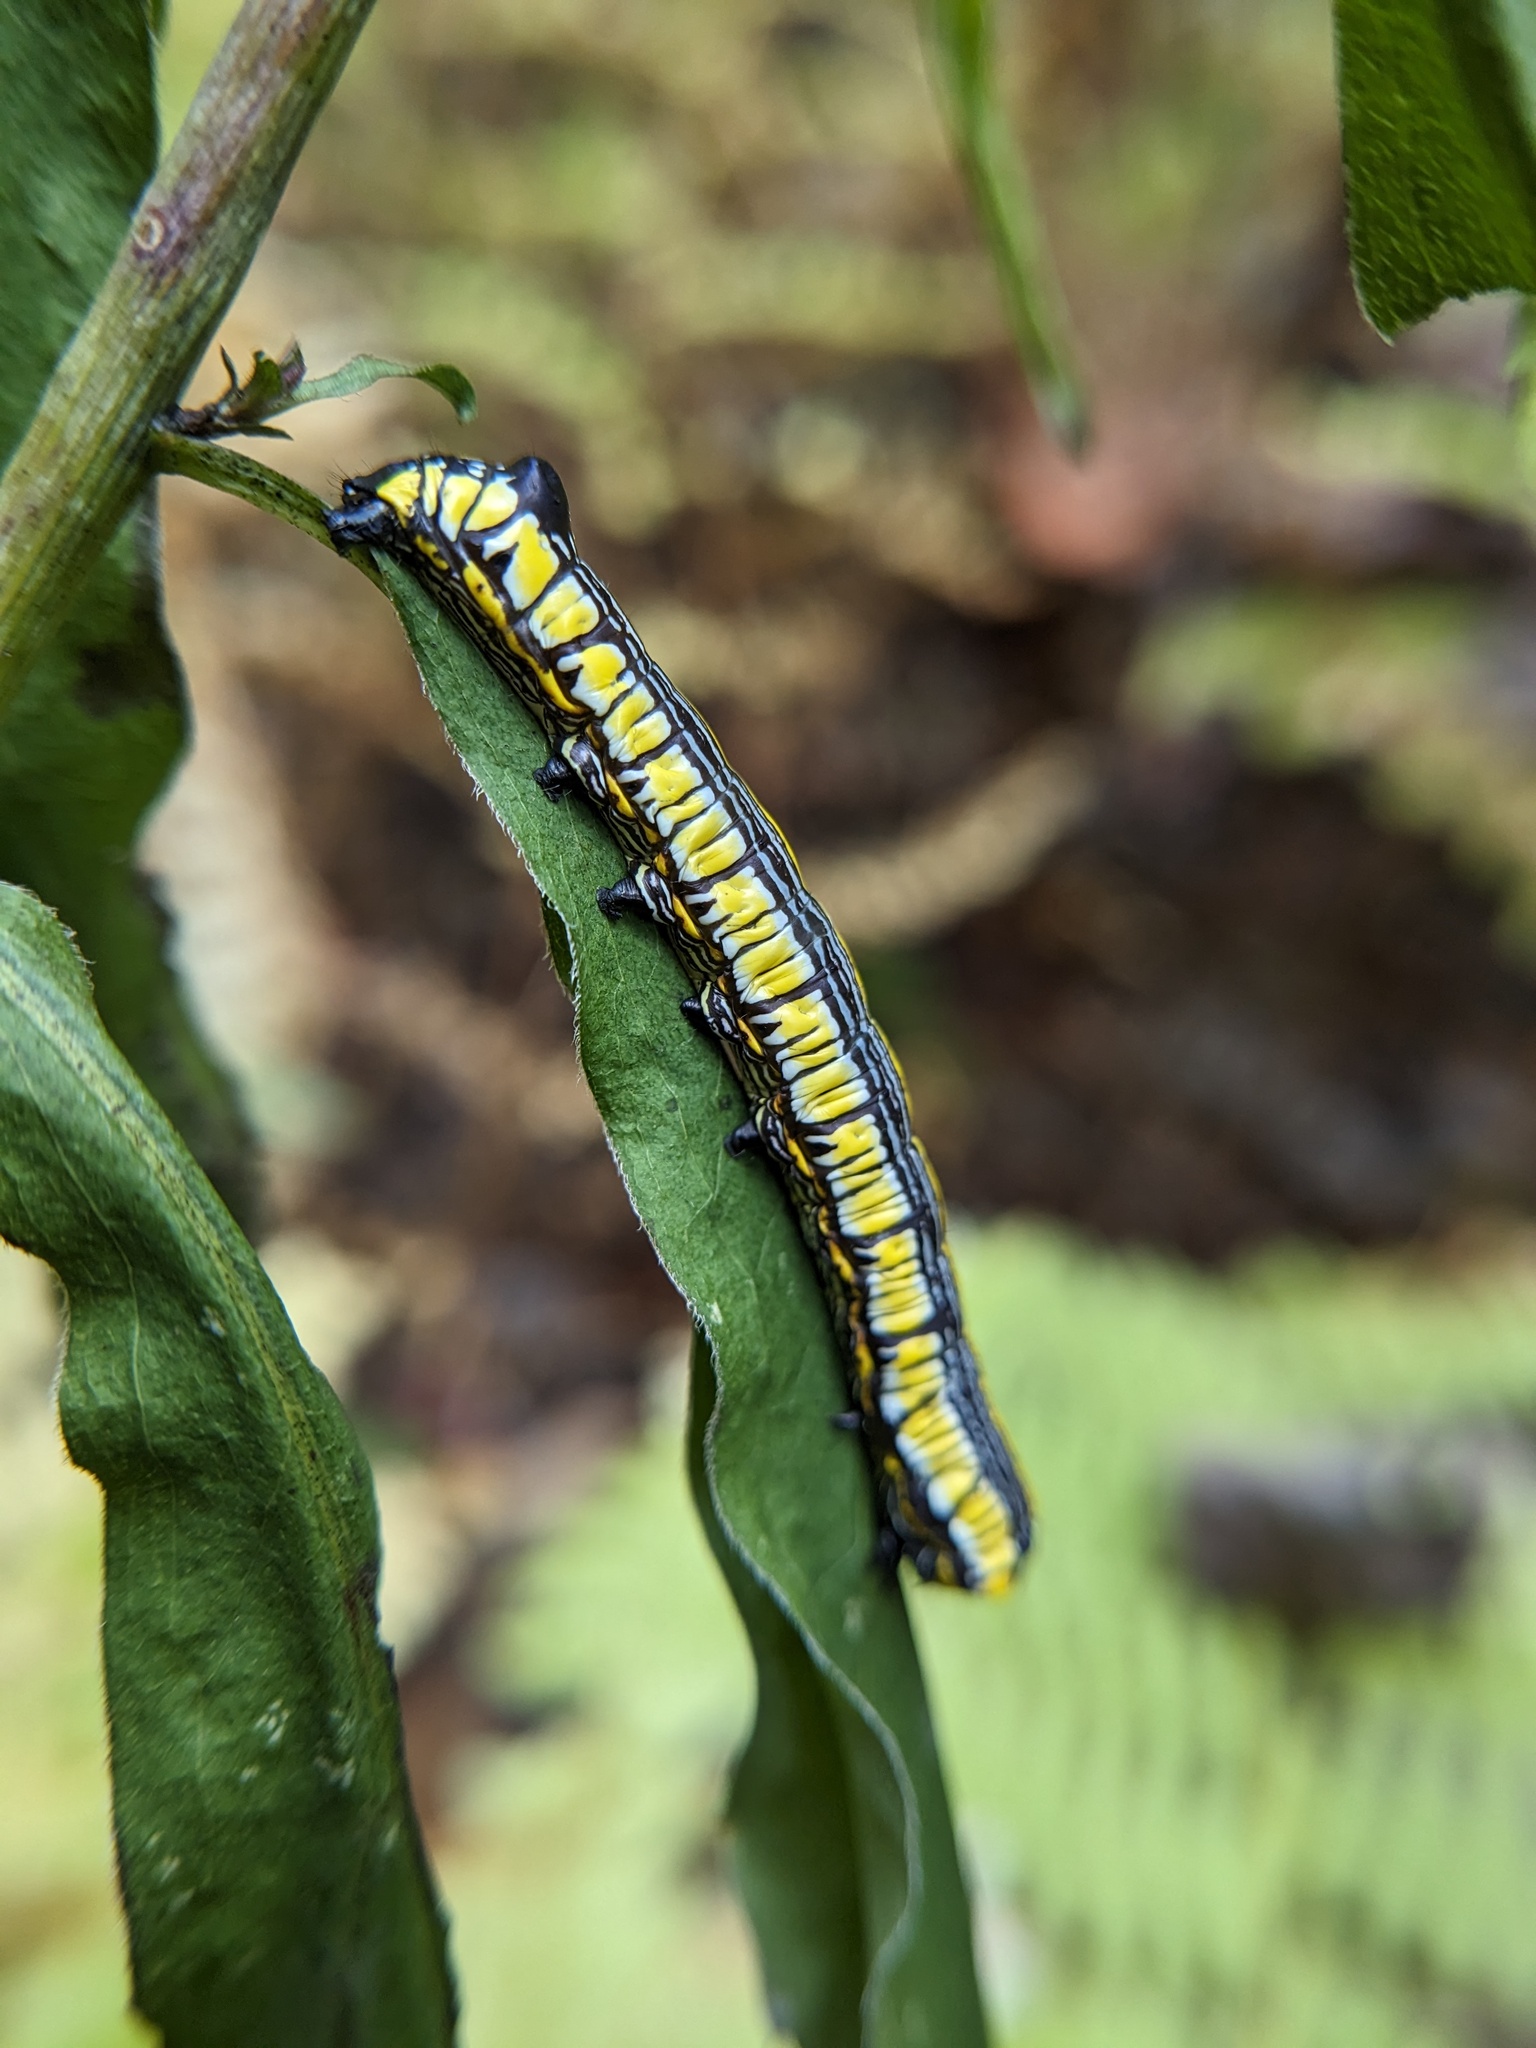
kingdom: Animalia
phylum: Arthropoda
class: Insecta
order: Lepidoptera
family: Noctuidae
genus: Cucullia
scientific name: Cucullia convexipennis
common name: Brown-hooded owlet
